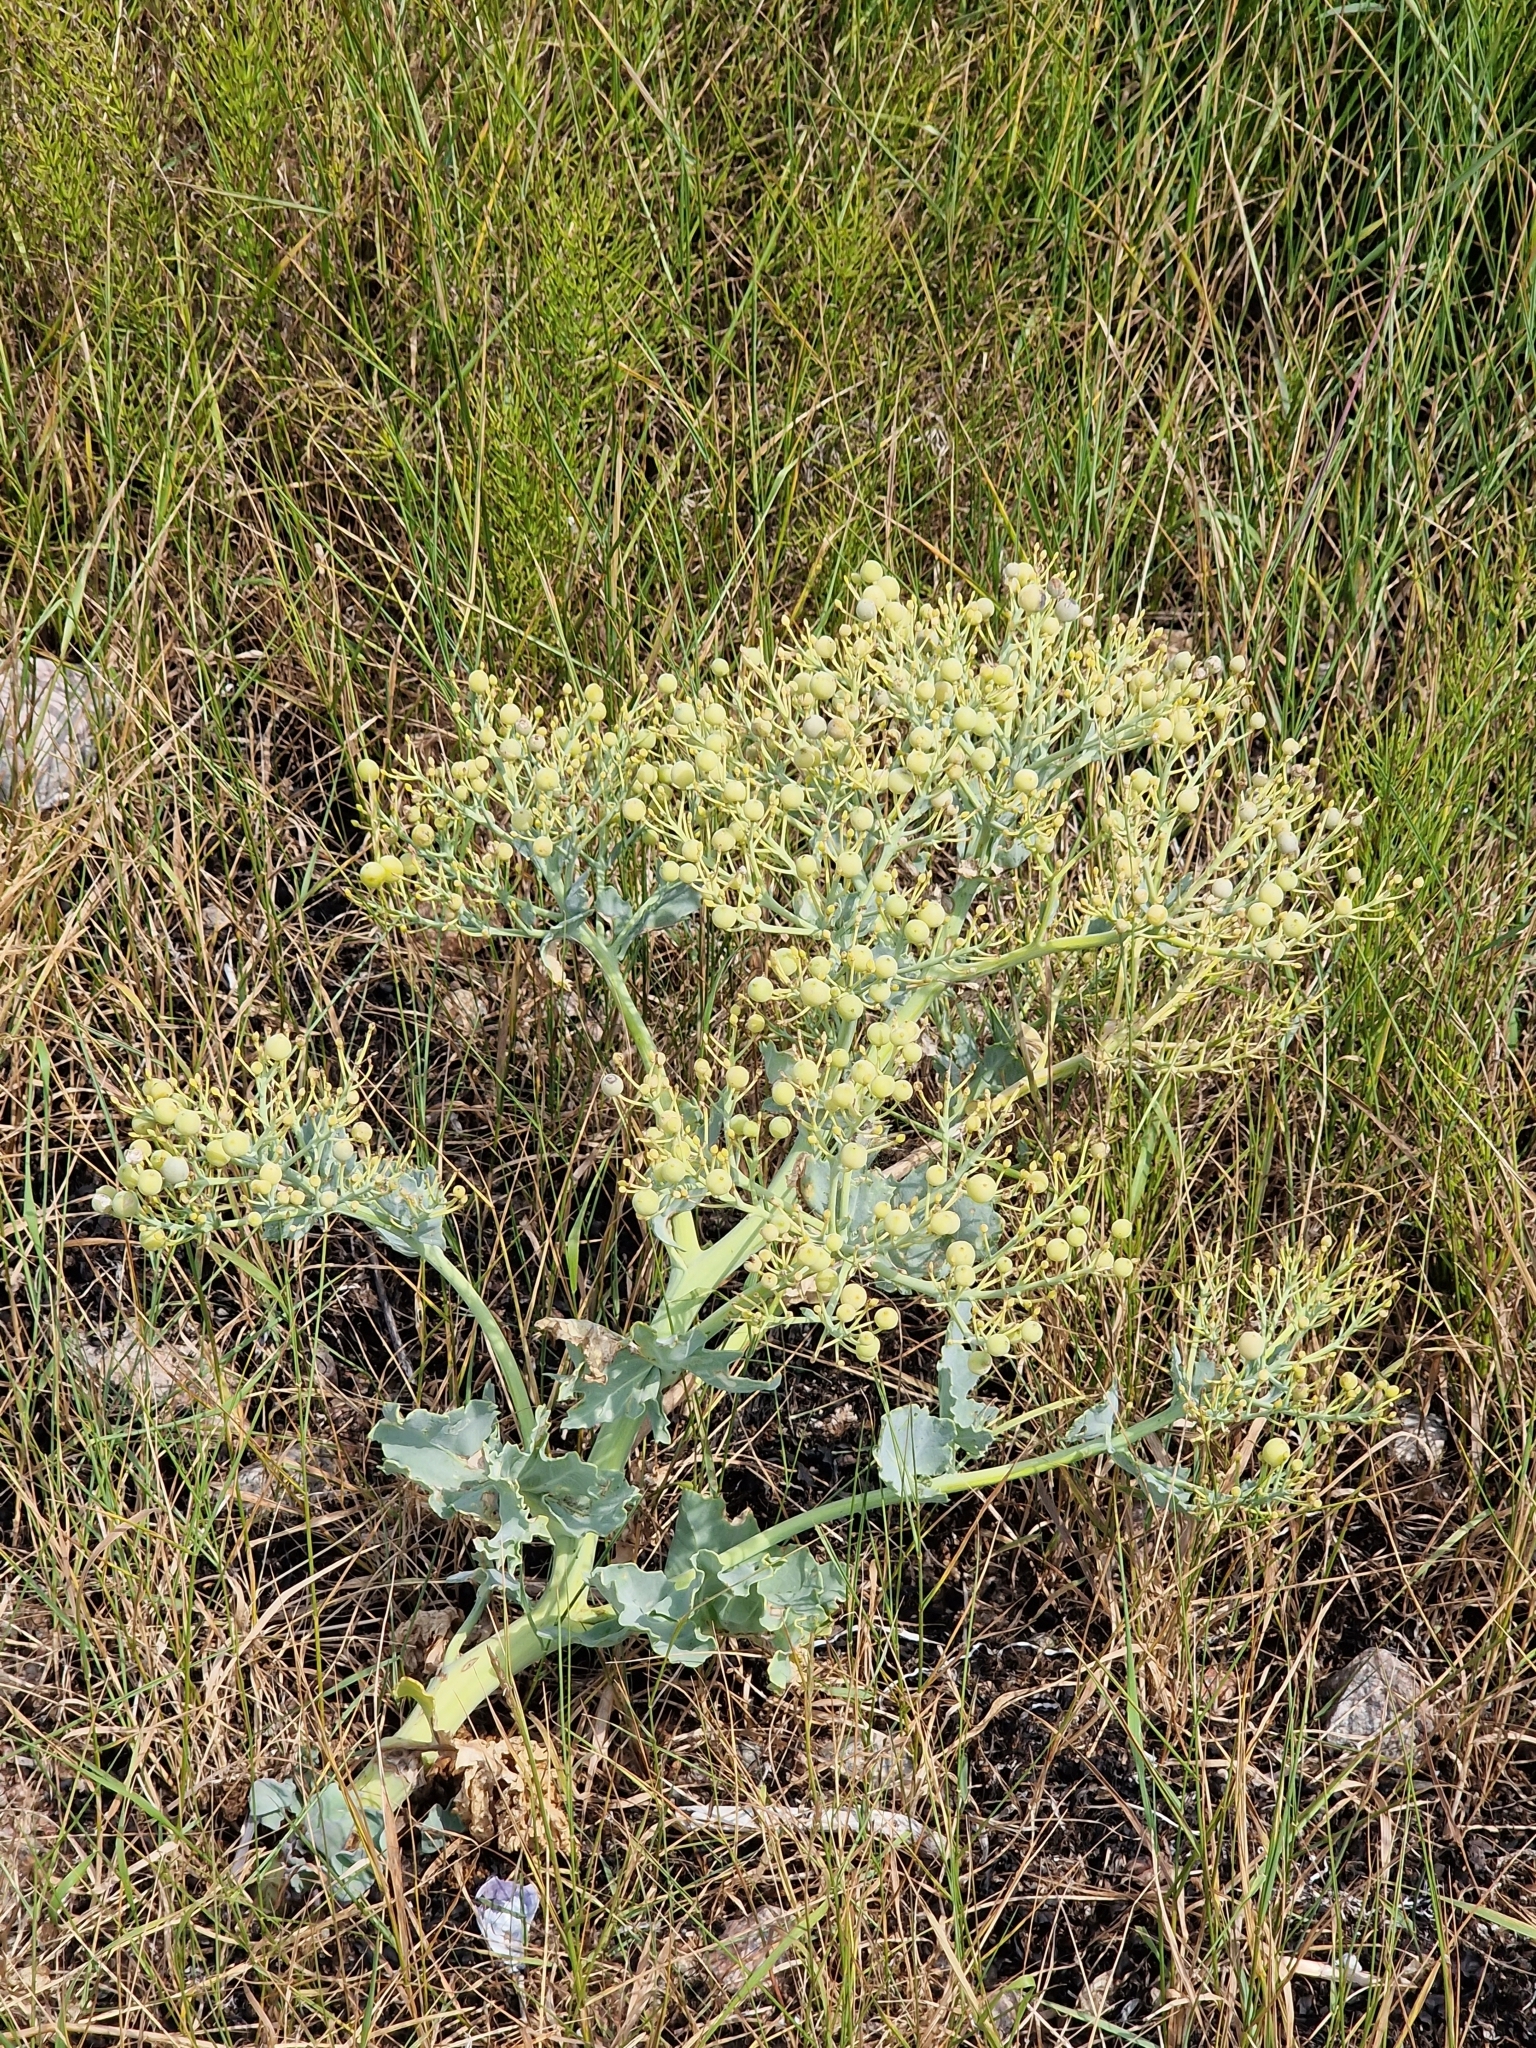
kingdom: Plantae
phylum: Tracheophyta
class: Magnoliopsida
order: Brassicales
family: Brassicaceae
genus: Crambe
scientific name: Crambe maritima
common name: Sea-kale
